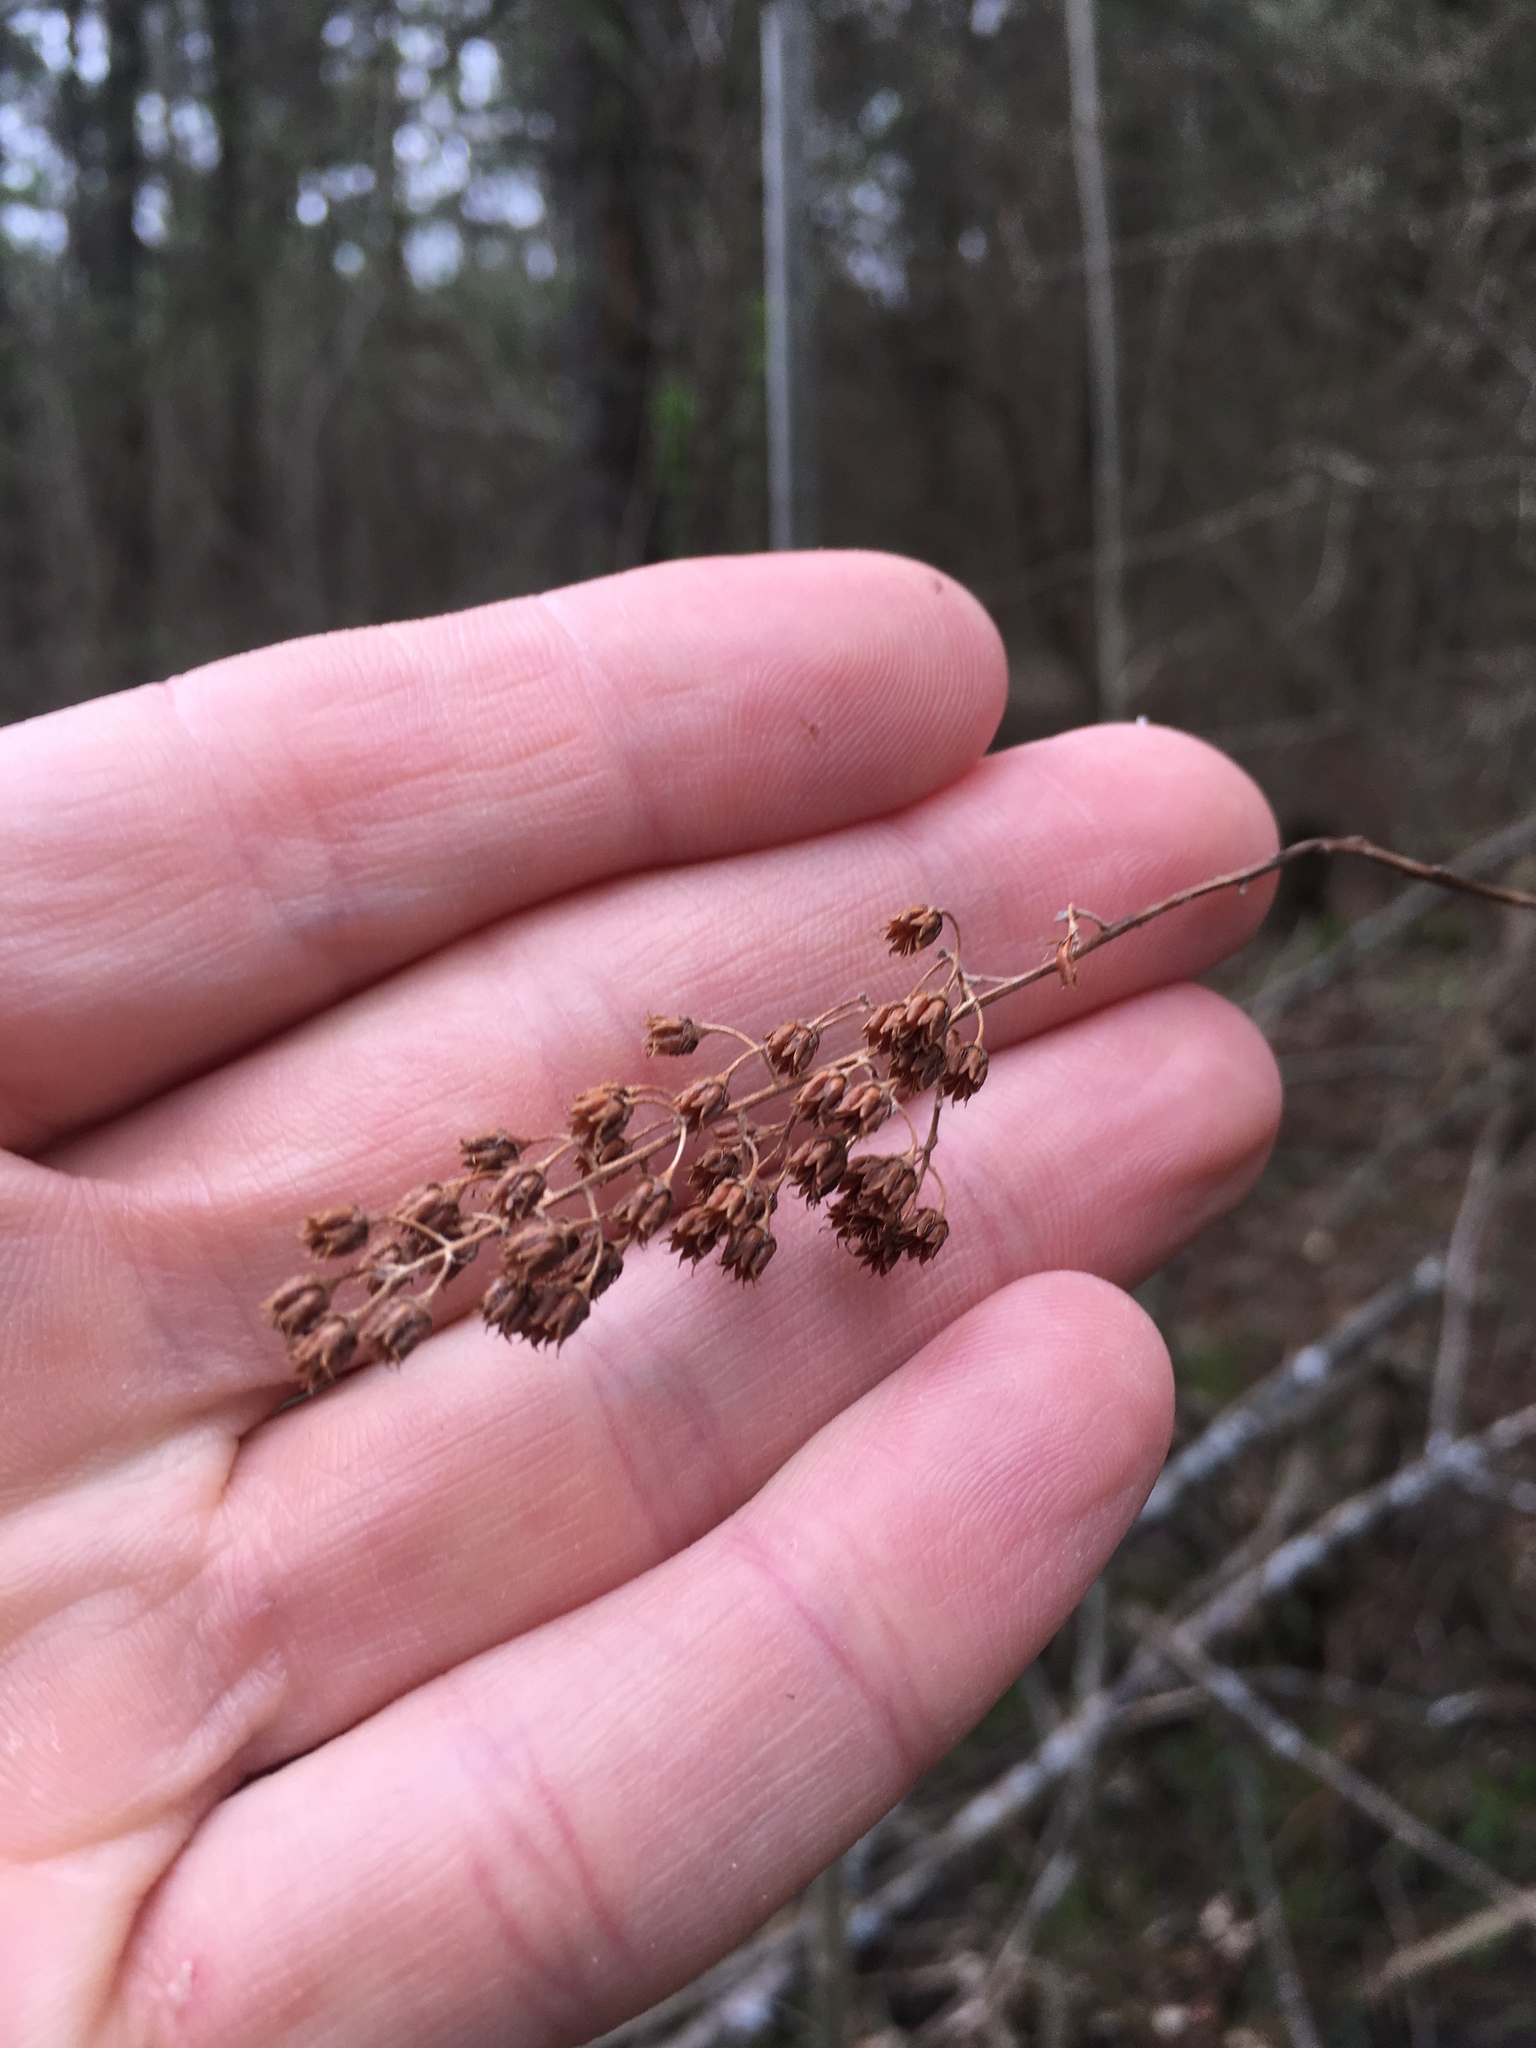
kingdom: Plantae
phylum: Tracheophyta
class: Magnoliopsida
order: Rosales
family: Rosaceae
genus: Spiraea
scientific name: Spiraea alba
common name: Pale bridewort
